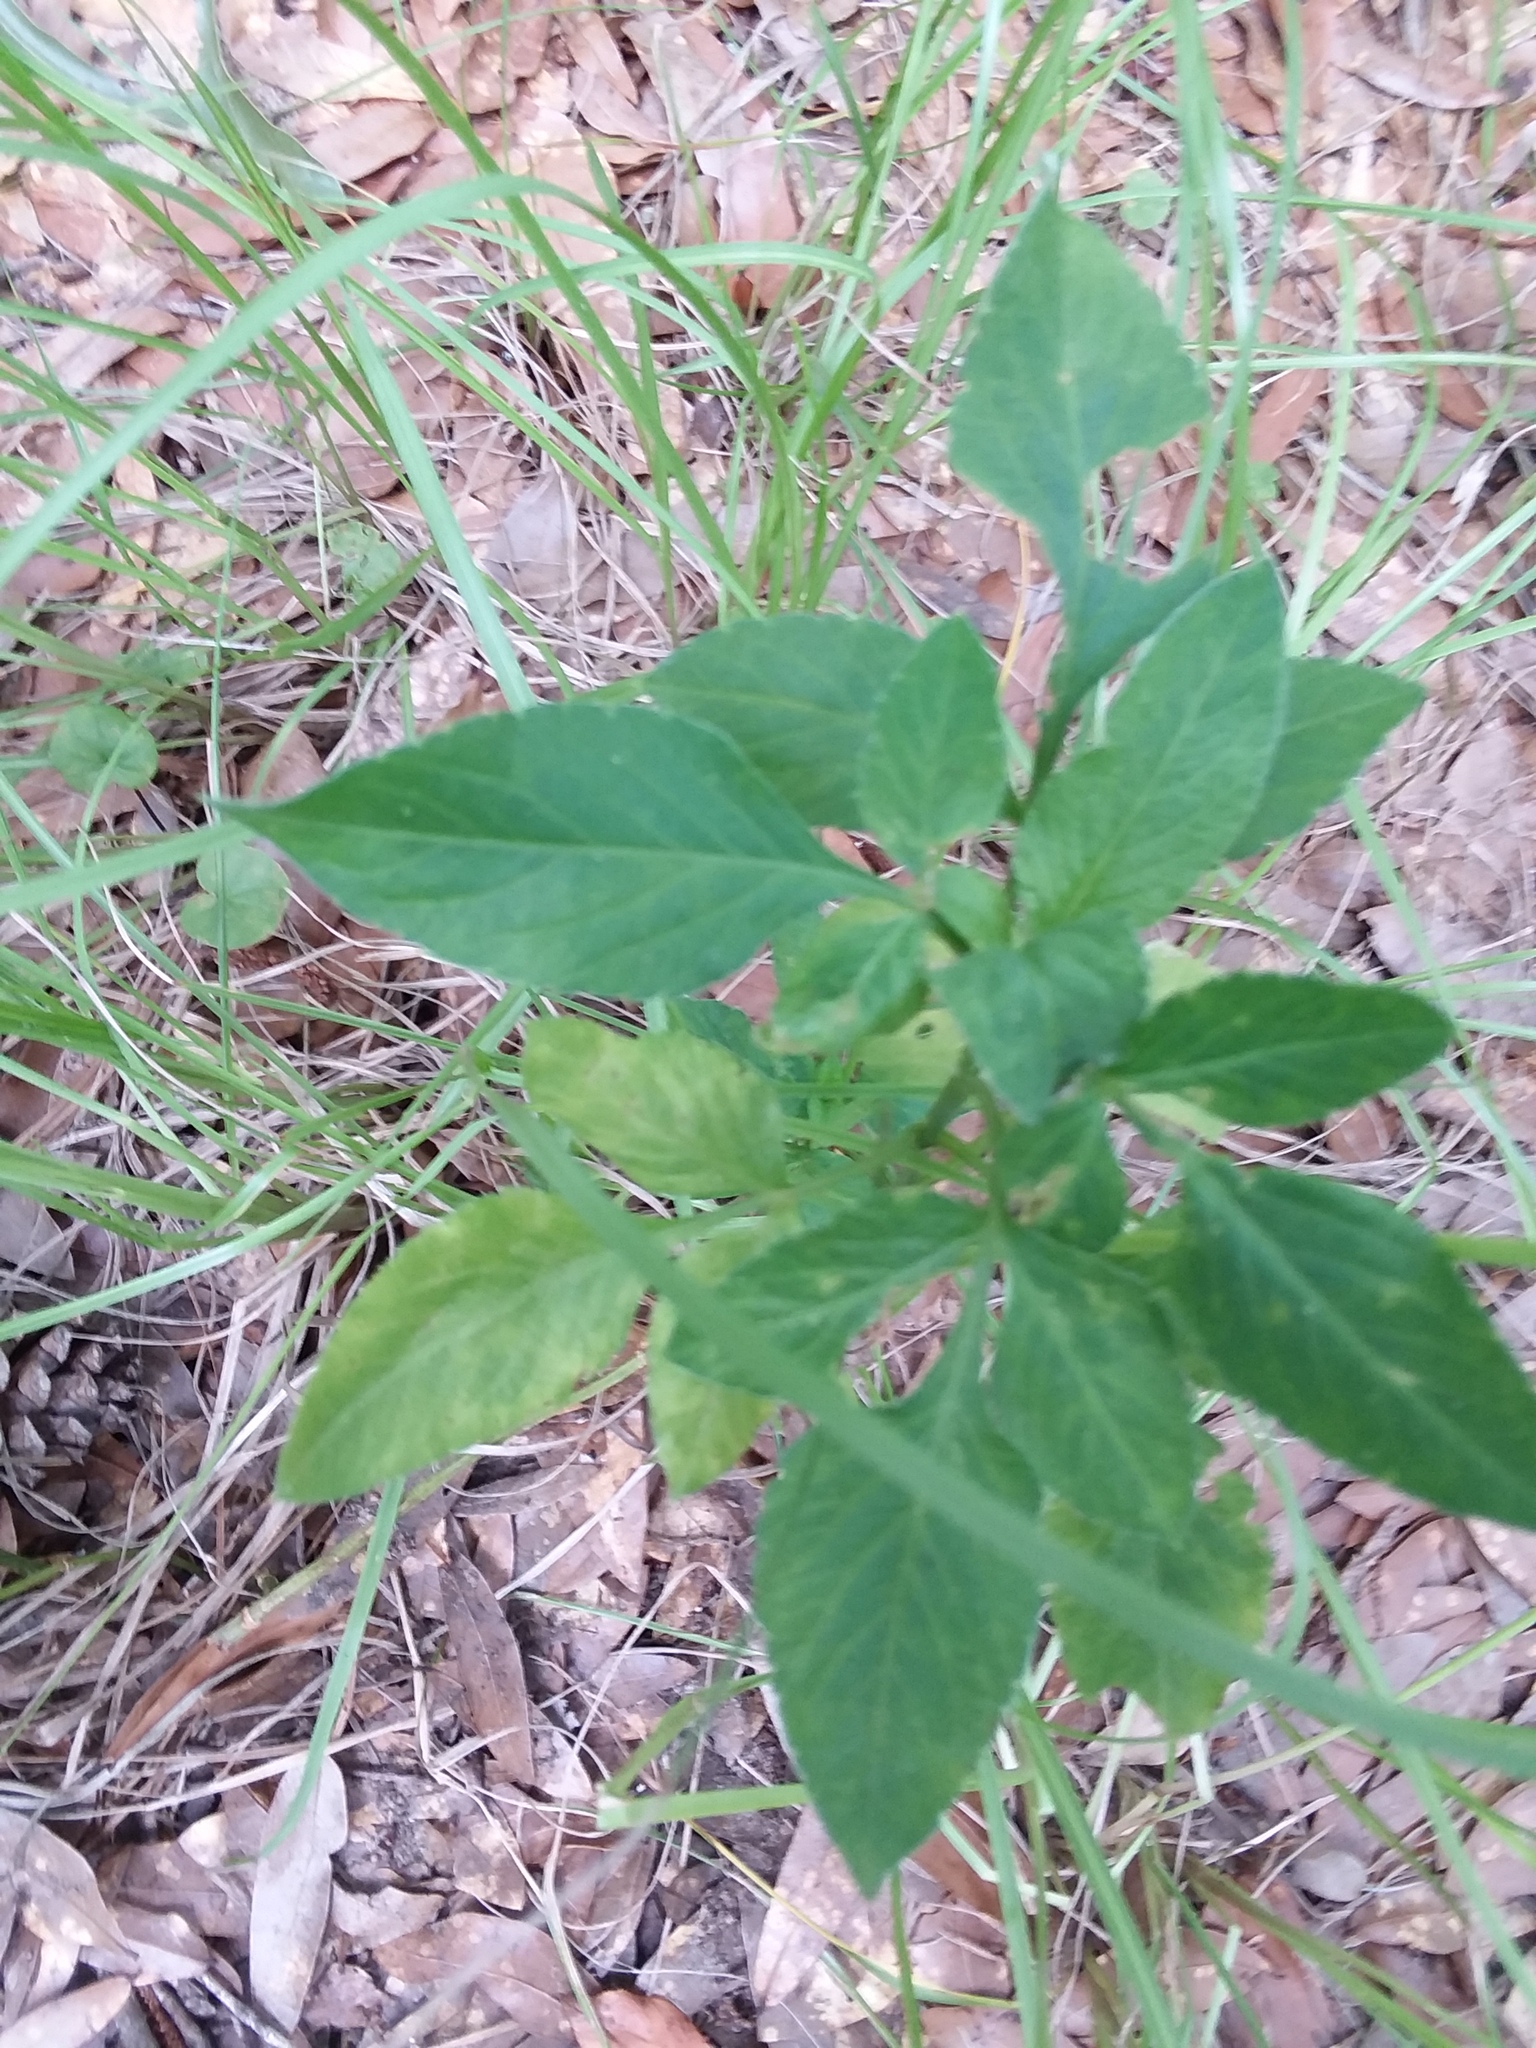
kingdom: Plantae
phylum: Tracheophyta
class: Magnoliopsida
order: Asterales
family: Asteraceae
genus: Bidens
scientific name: Bidens alba
